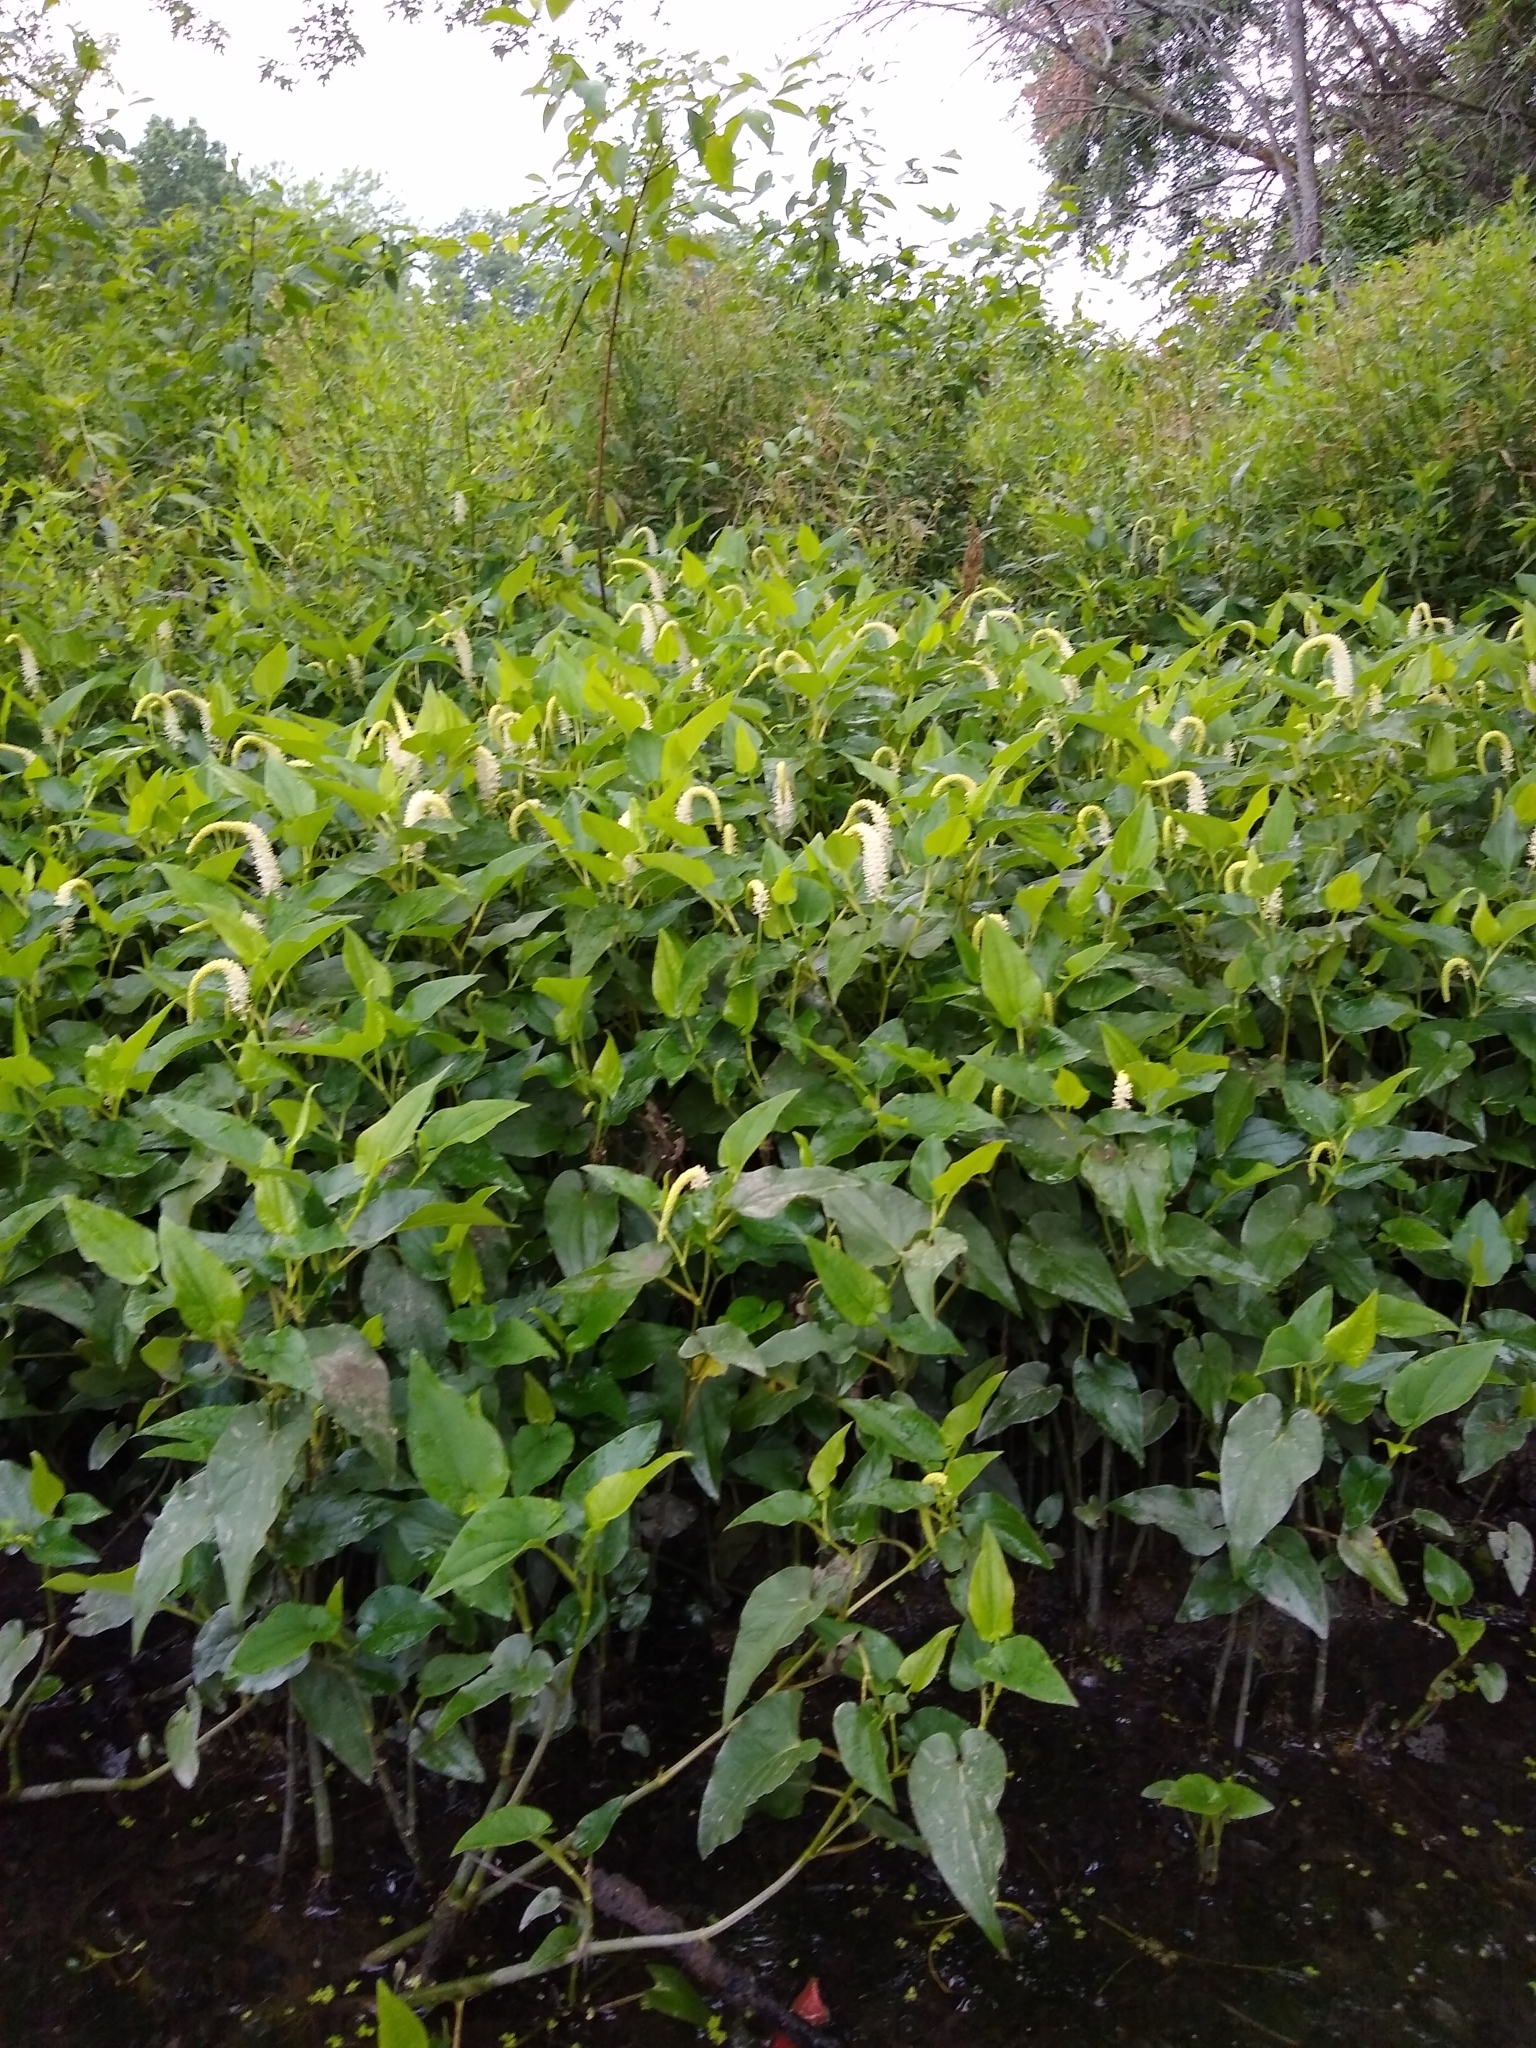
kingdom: Plantae
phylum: Tracheophyta
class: Magnoliopsida
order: Piperales
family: Saururaceae
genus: Saururus
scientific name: Saururus cernuus
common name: Lizard's-tail
